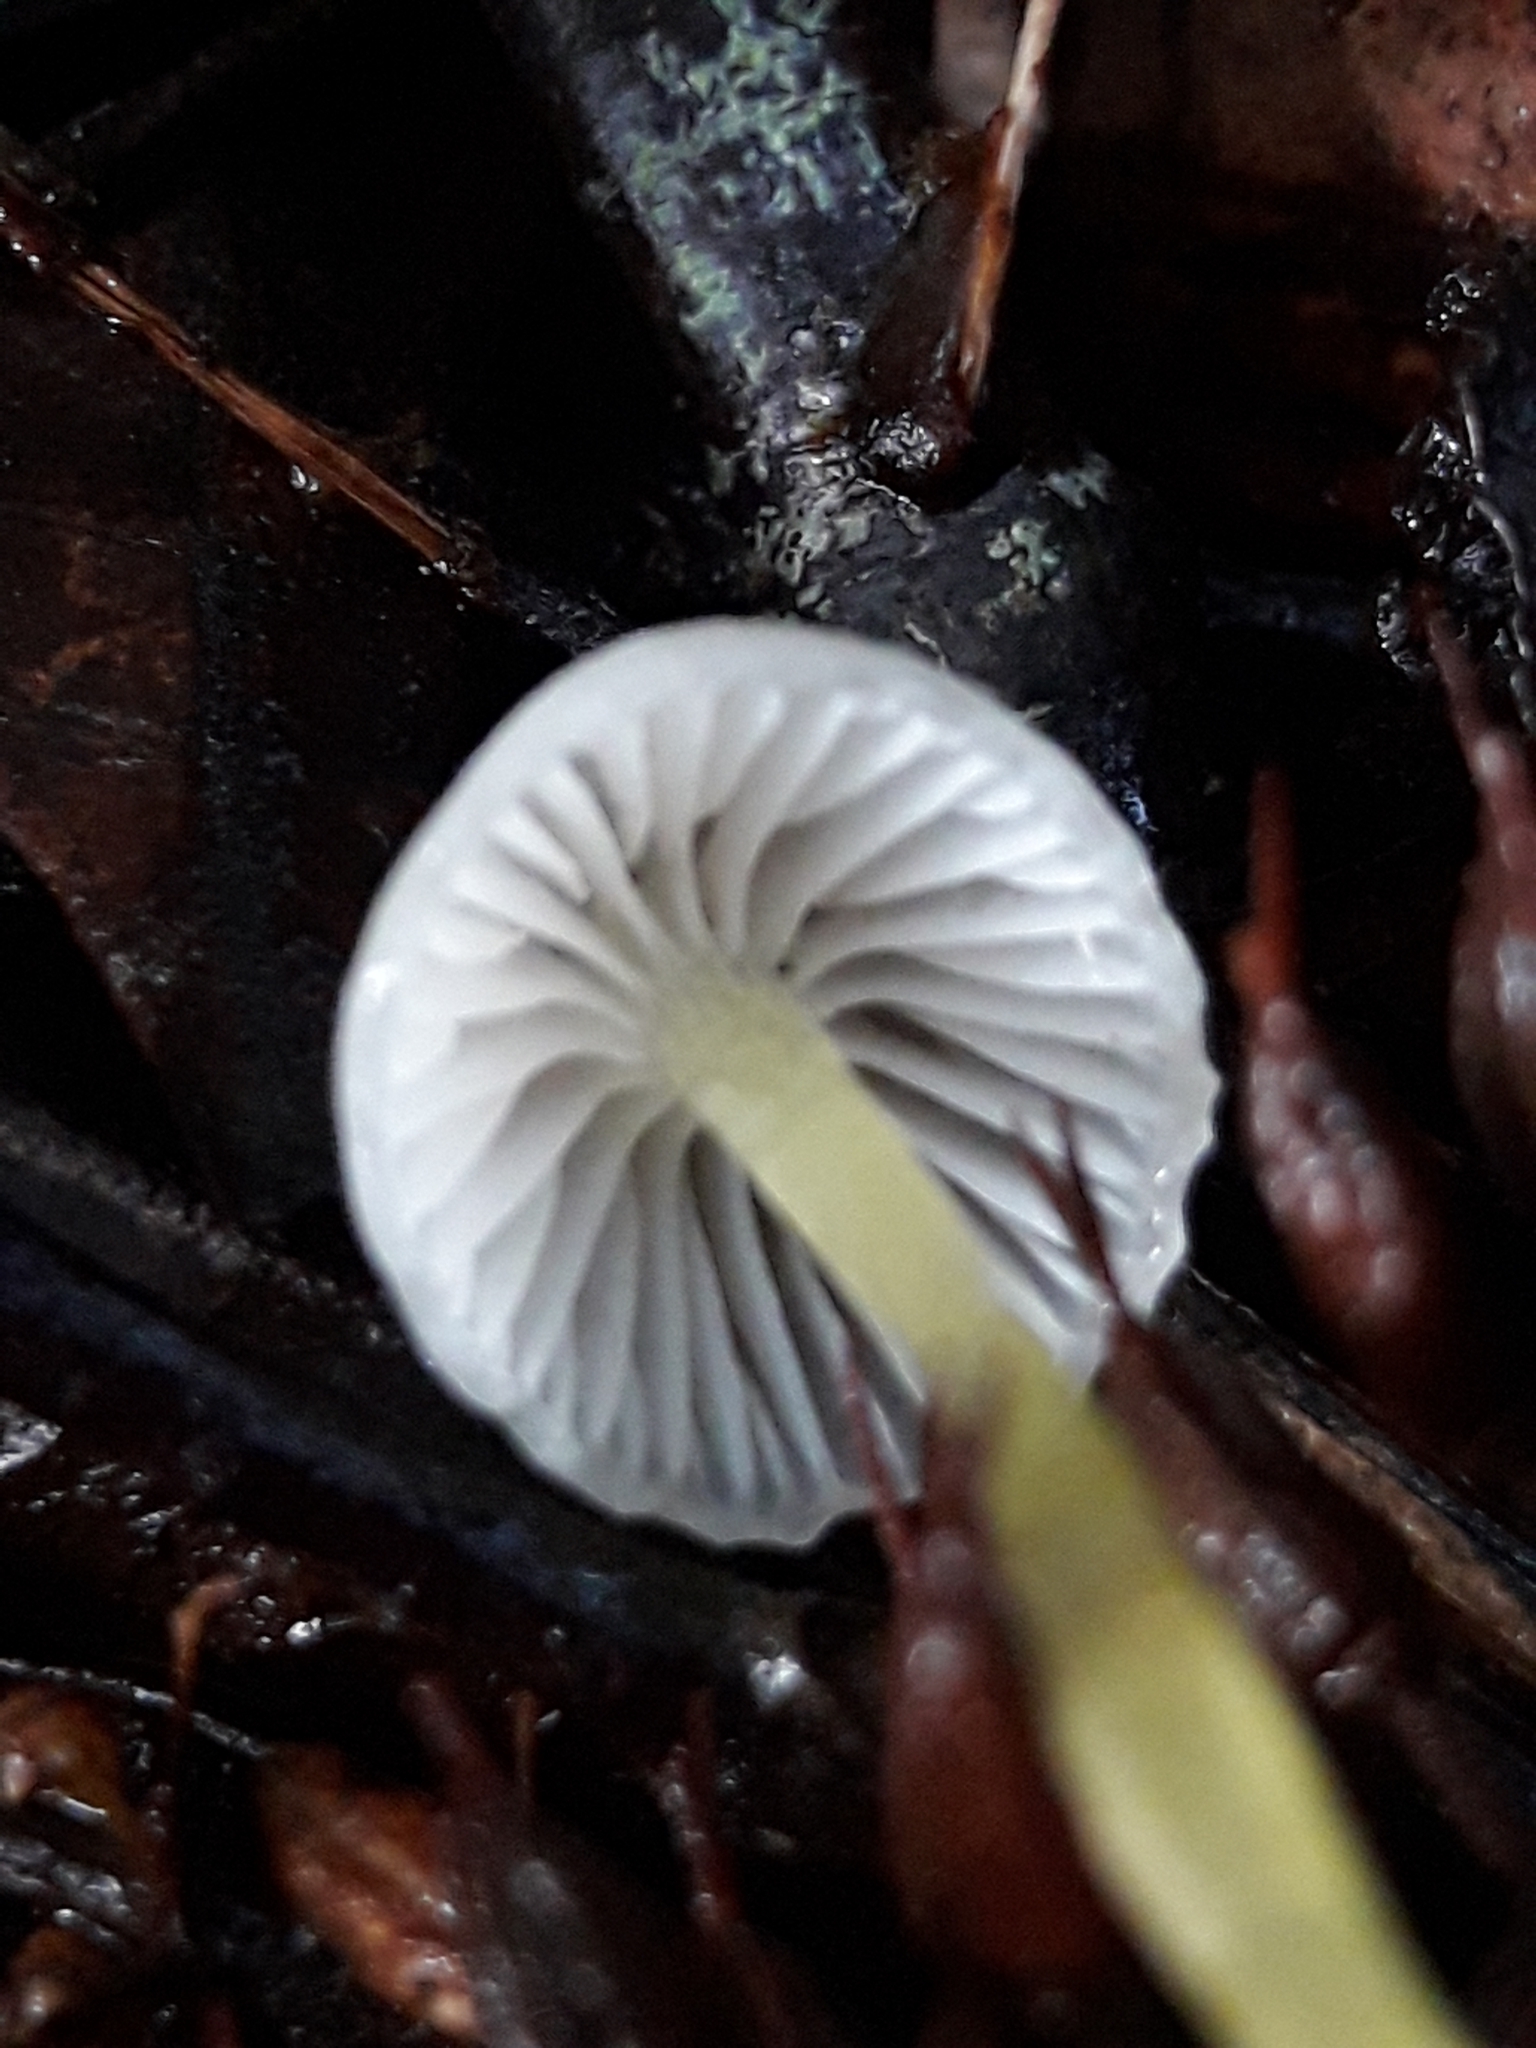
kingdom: Fungi
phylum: Basidiomycota
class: Agaricomycetes
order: Agaricales
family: Mycenaceae
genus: Mycena
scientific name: Mycena subviscosa
